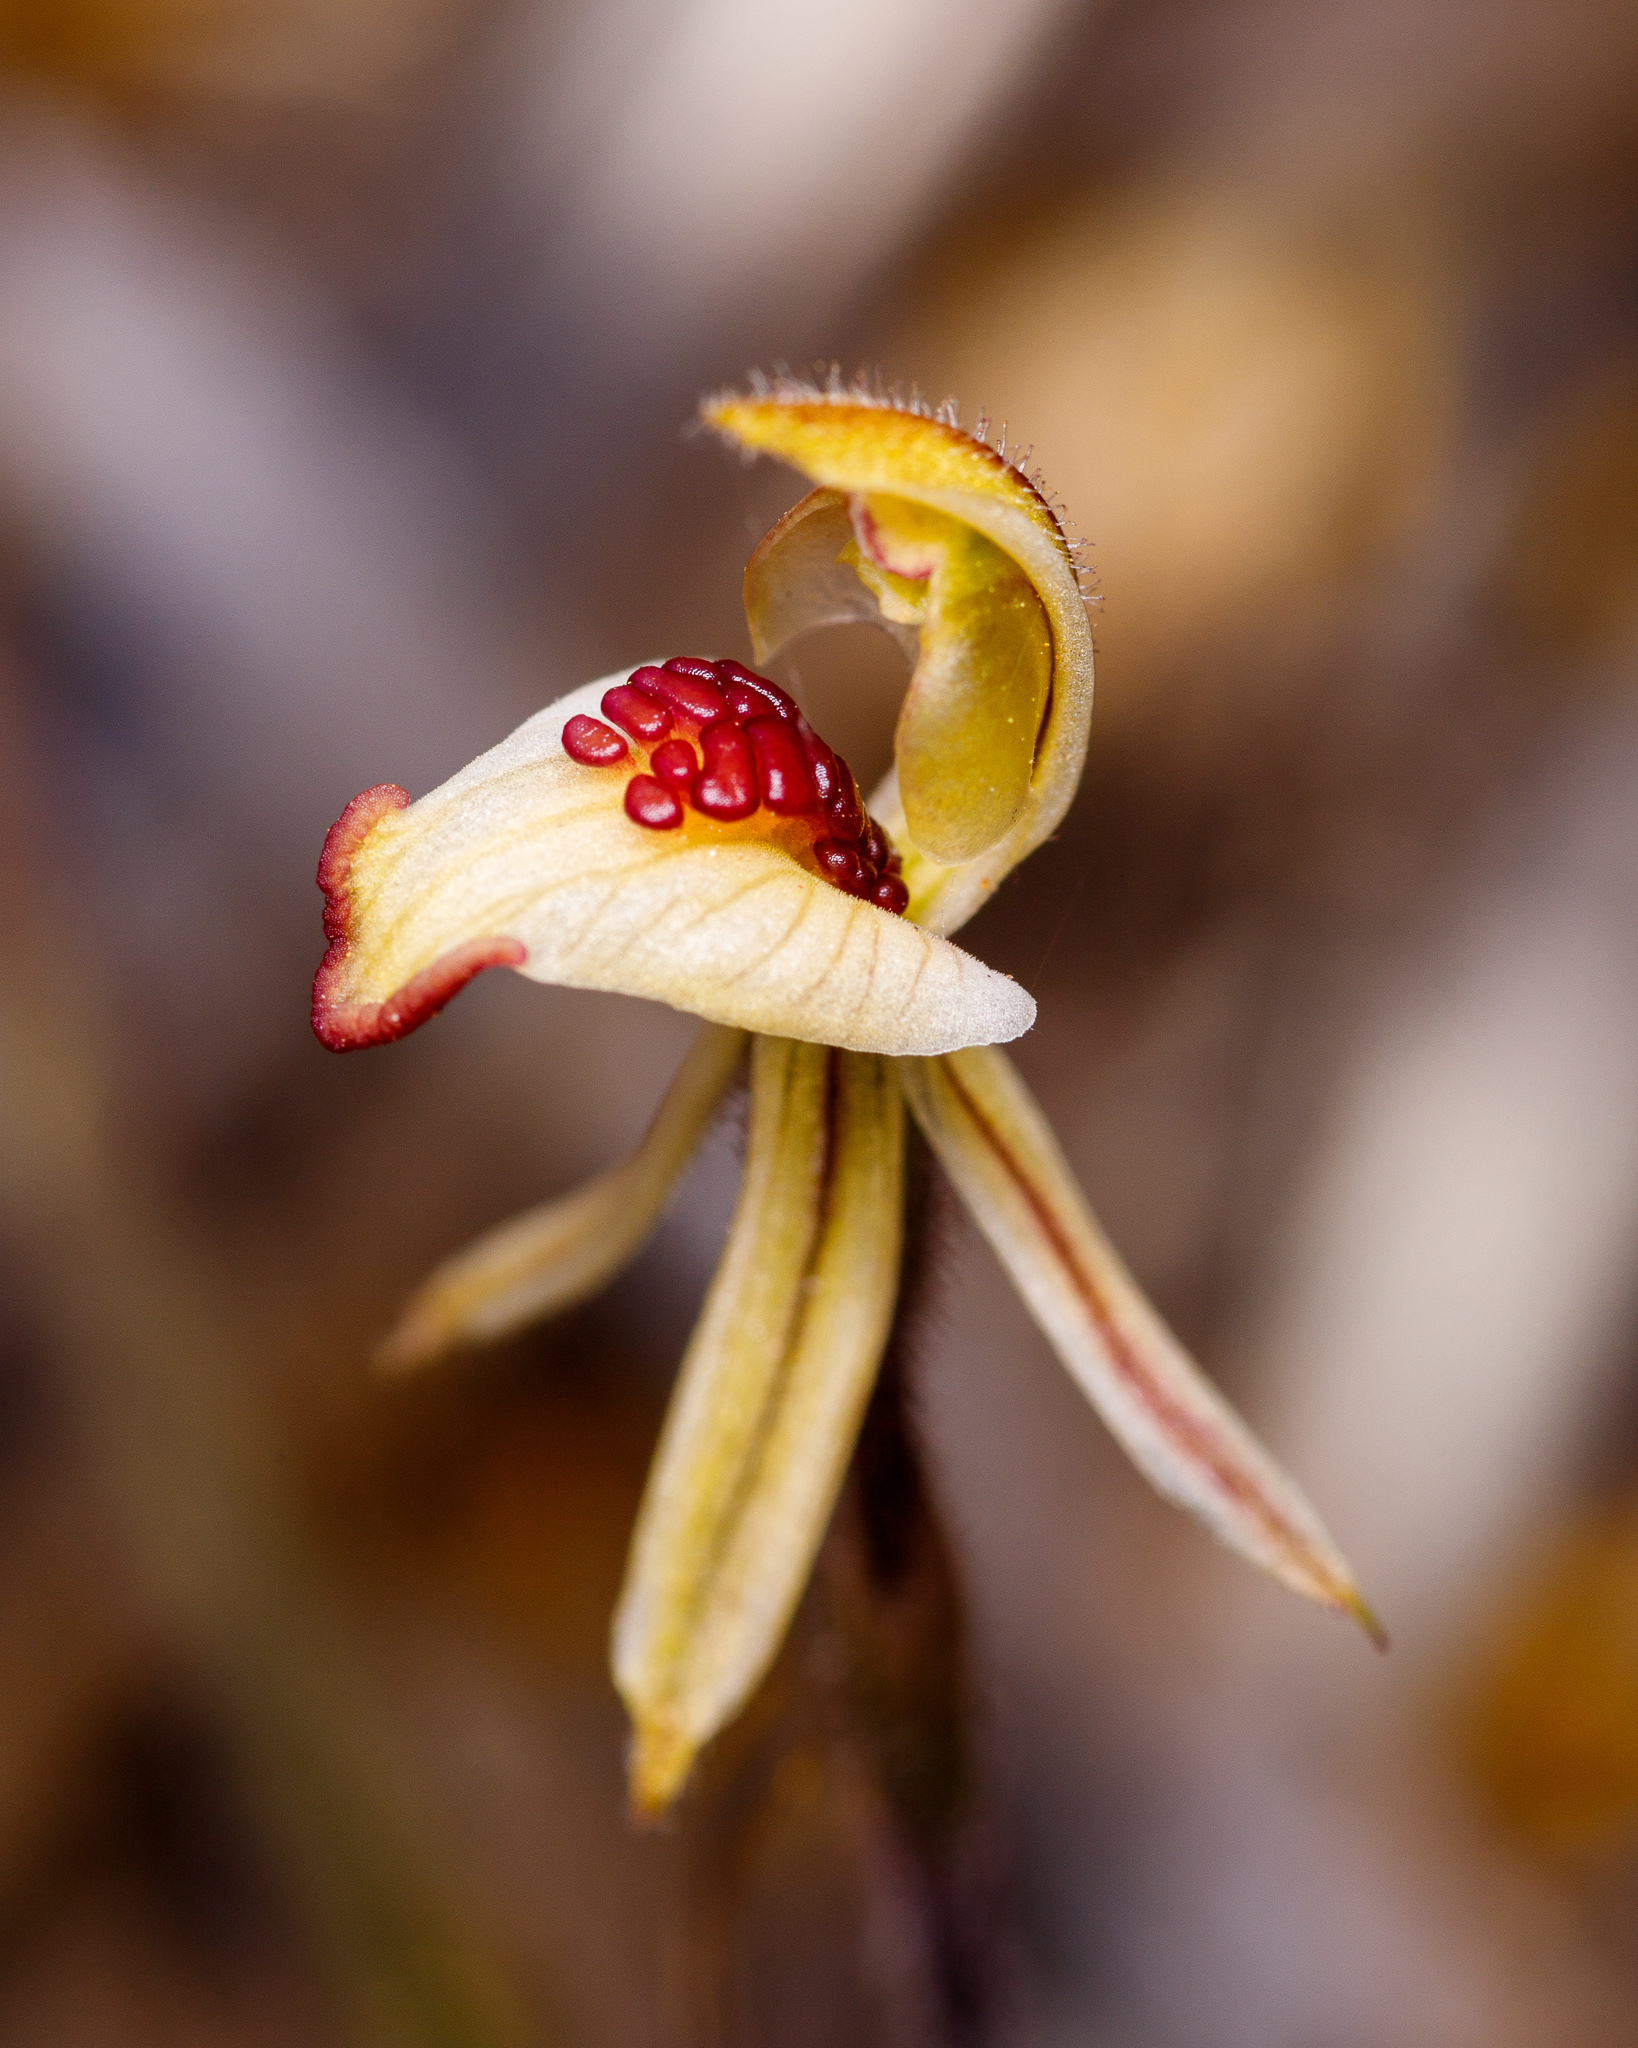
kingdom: Plantae
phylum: Tracheophyta
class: Liliopsida
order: Asparagales
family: Orchidaceae
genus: Caladenia
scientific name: Caladenia pachychila
